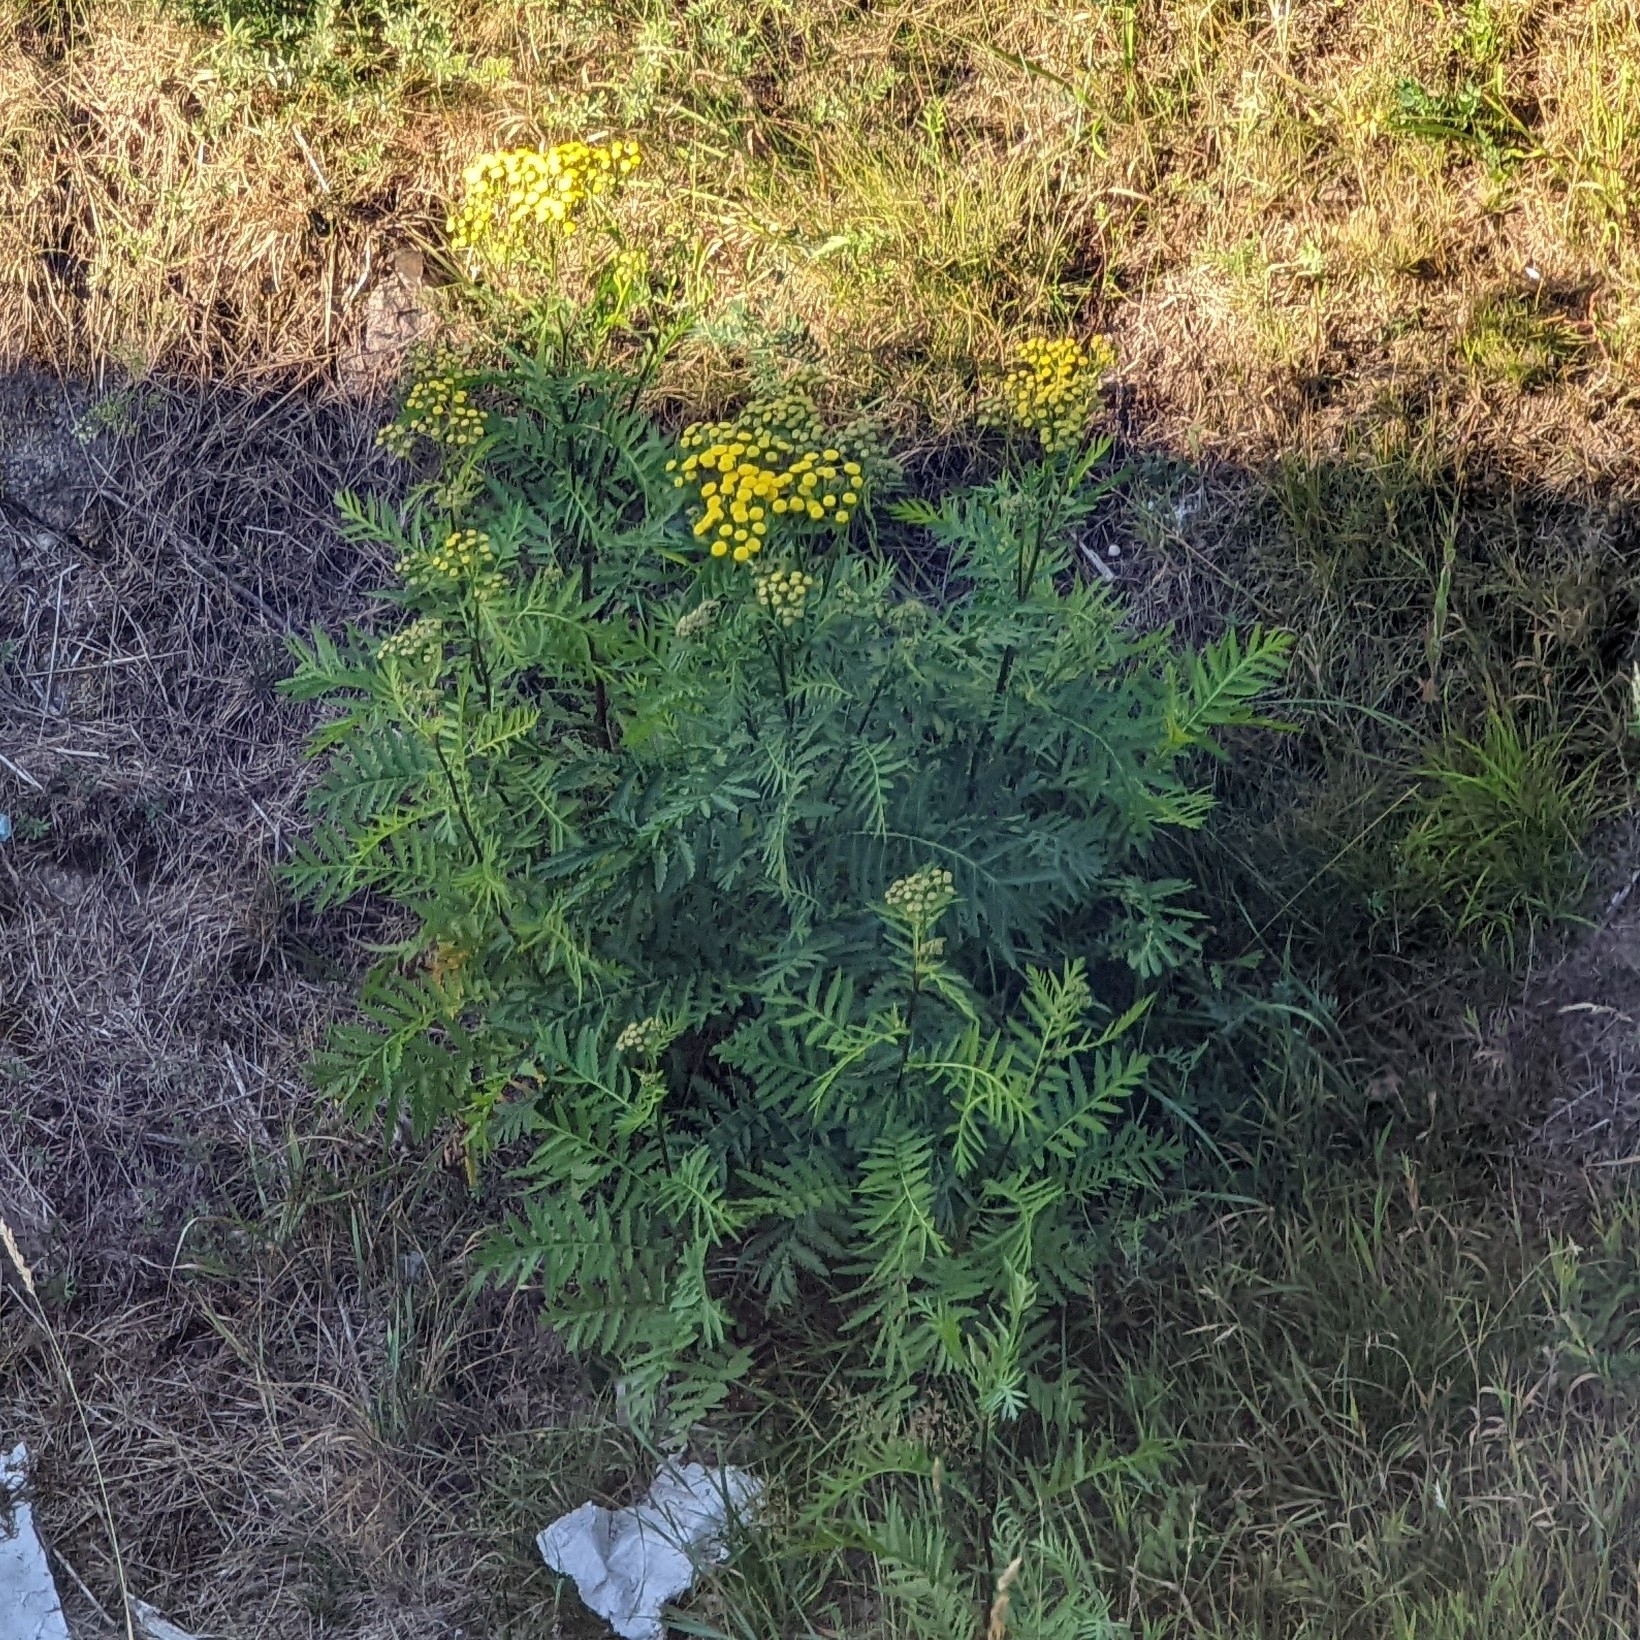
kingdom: Plantae
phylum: Tracheophyta
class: Magnoliopsida
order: Asterales
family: Asteraceae
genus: Tanacetum
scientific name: Tanacetum vulgare
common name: Common tansy
